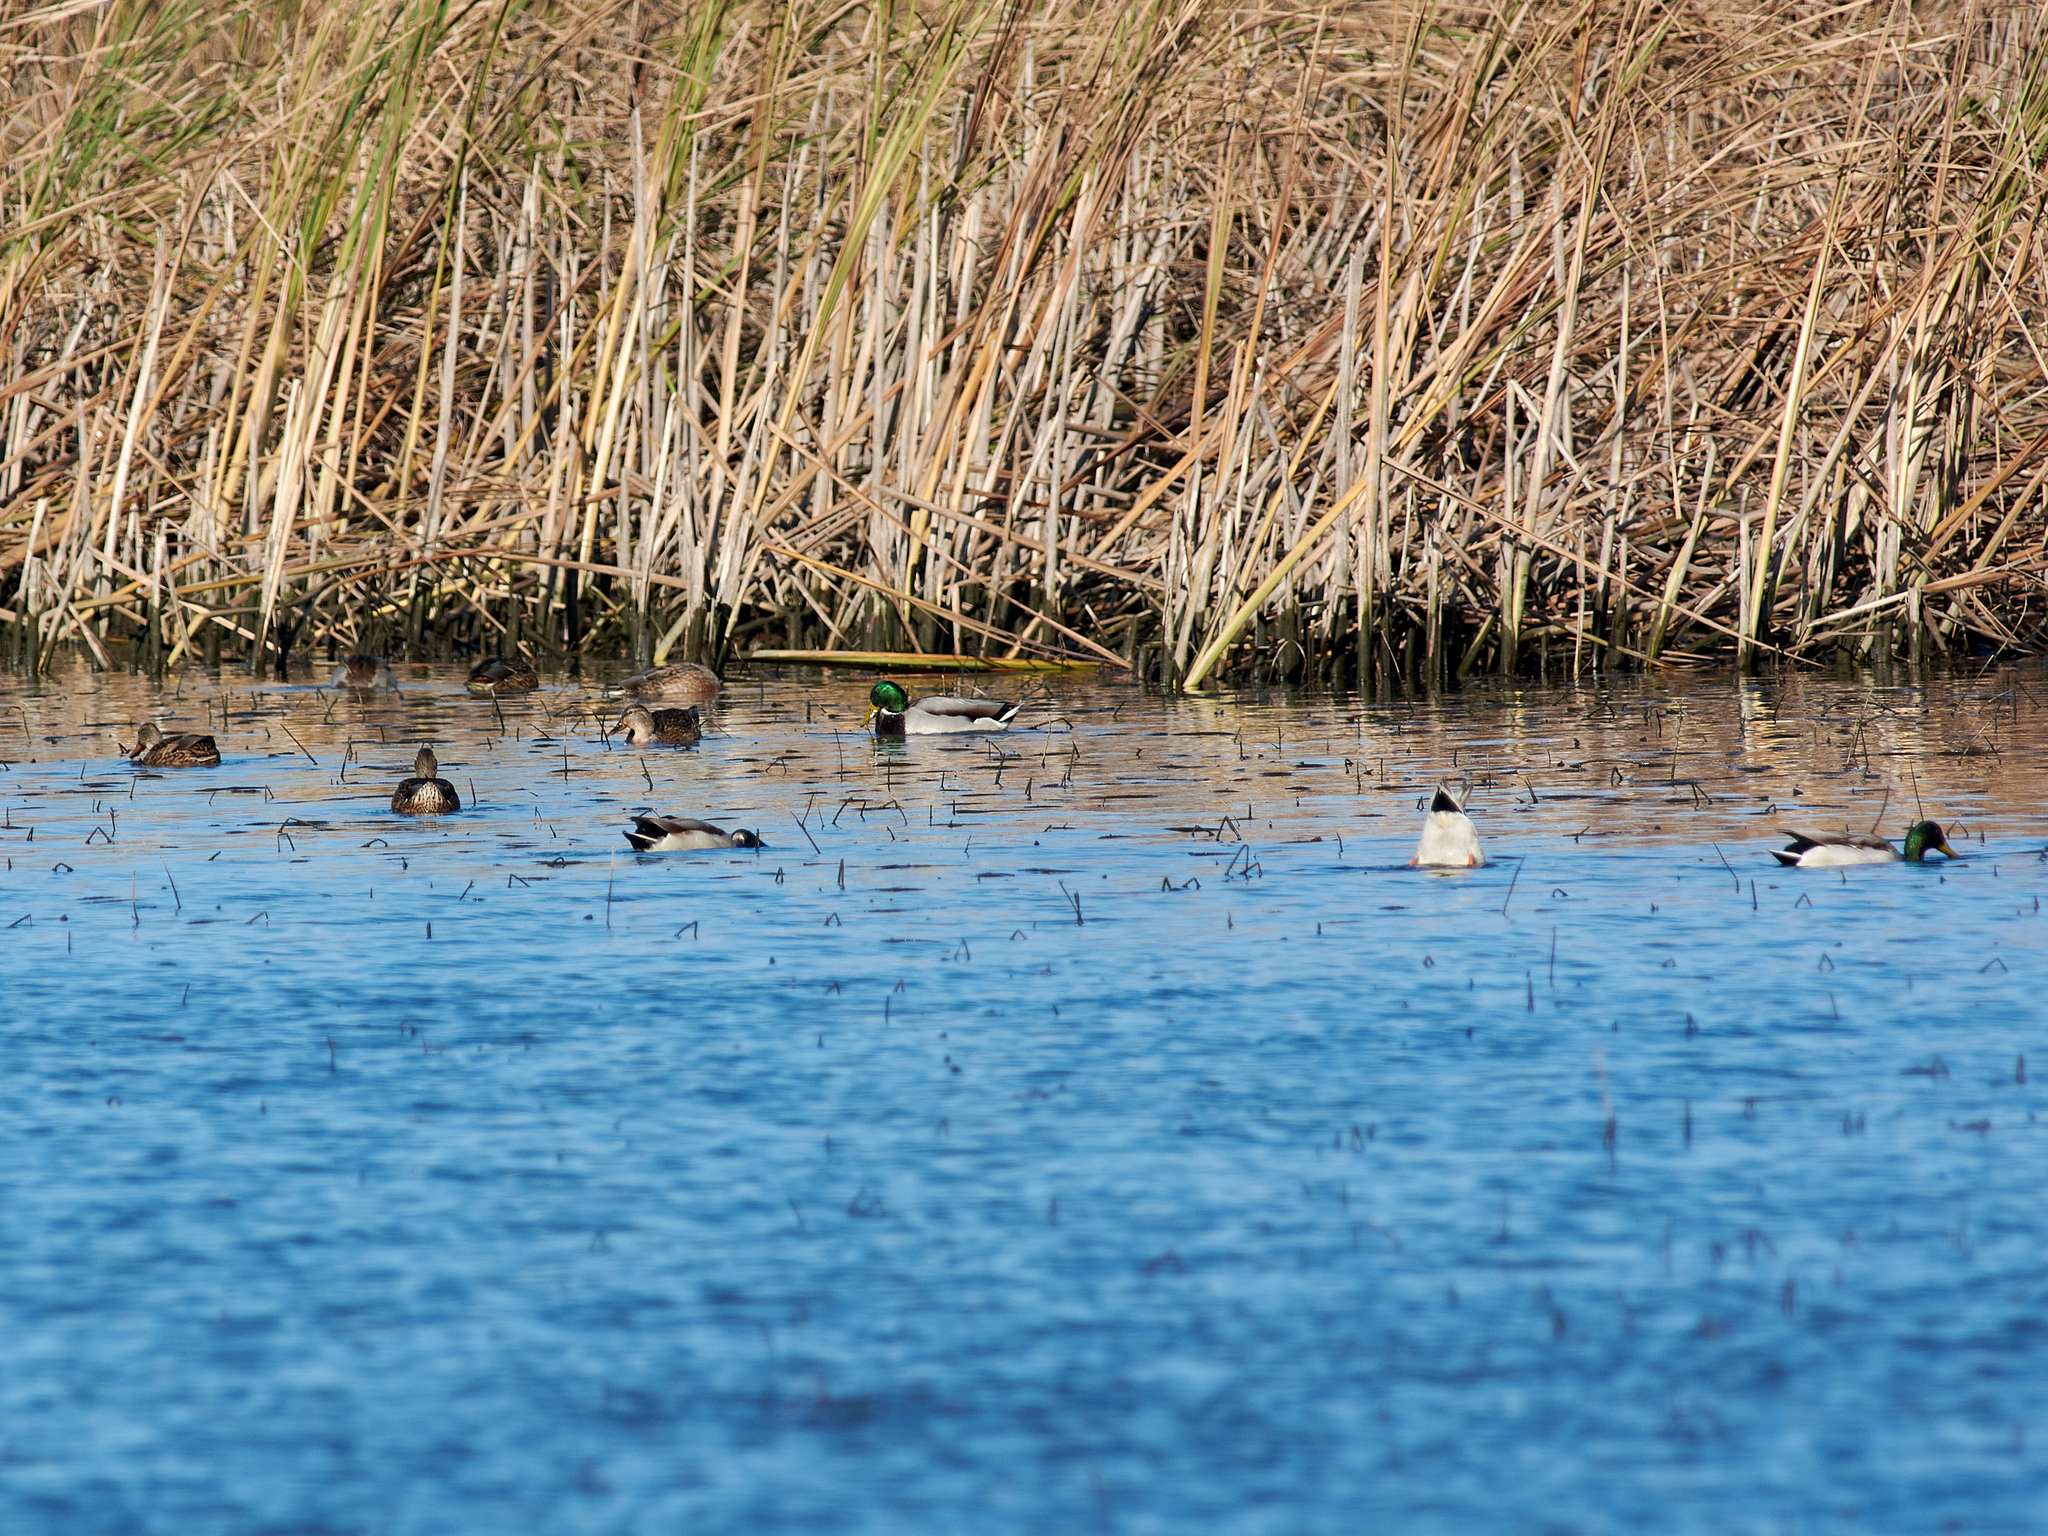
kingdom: Animalia
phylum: Chordata
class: Aves
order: Anseriformes
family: Anatidae
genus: Anas
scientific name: Anas platyrhynchos
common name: Mallard
